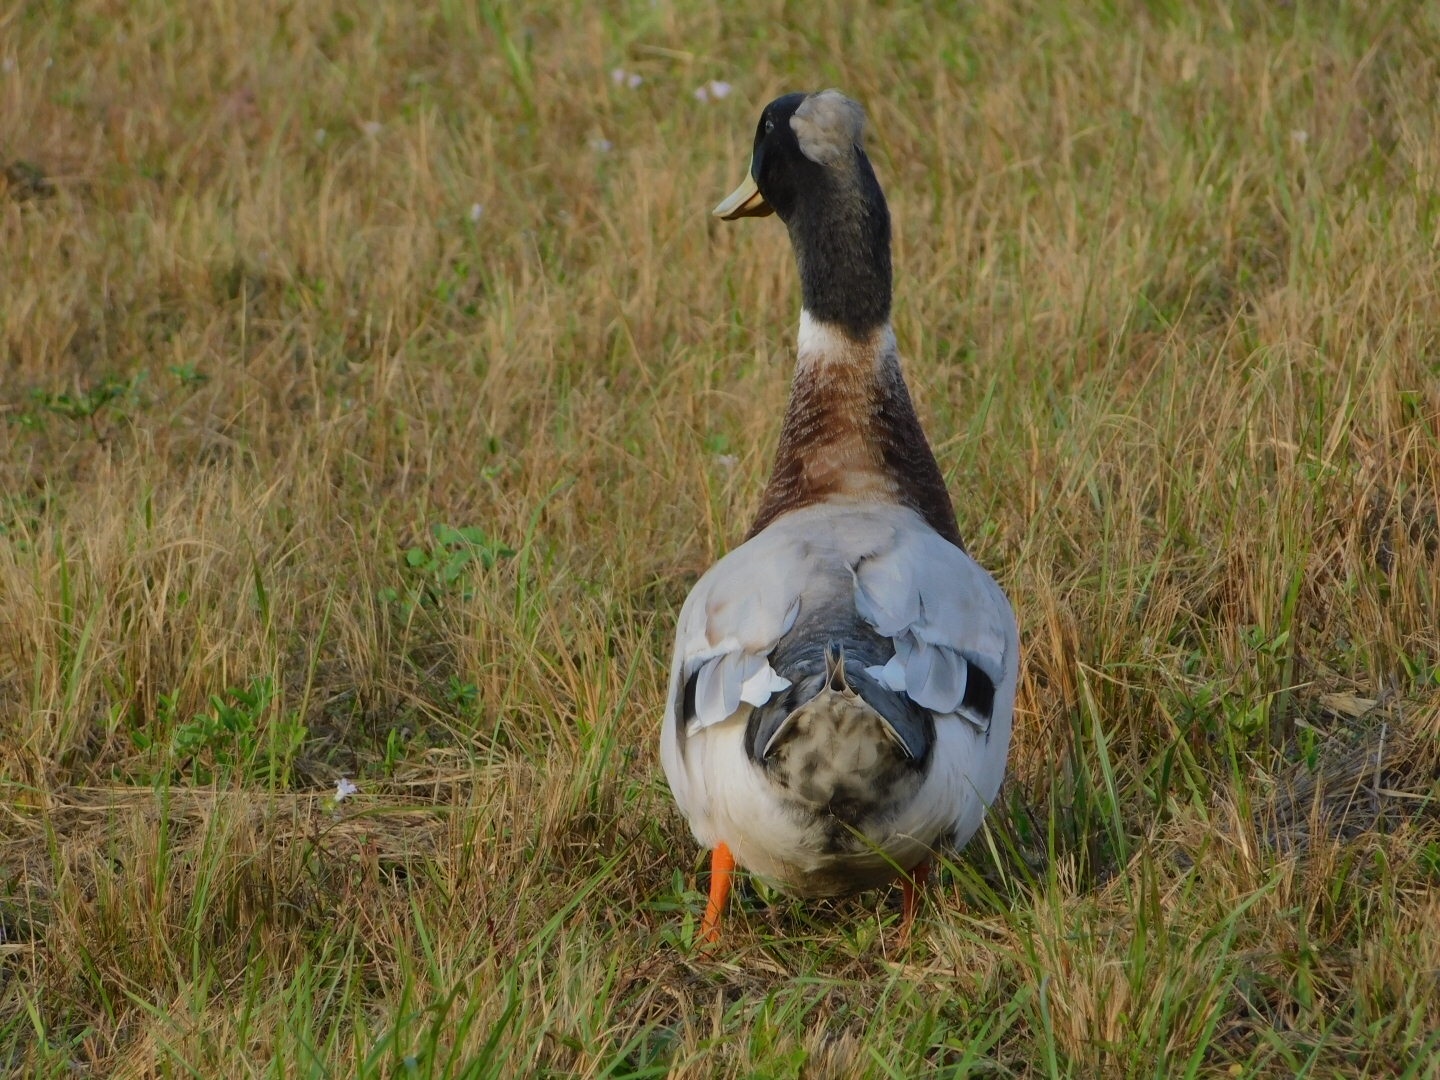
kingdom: Animalia
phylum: Chordata
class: Aves
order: Anseriformes
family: Anatidae
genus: Anas
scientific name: Anas platyrhynchos
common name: Mallard
